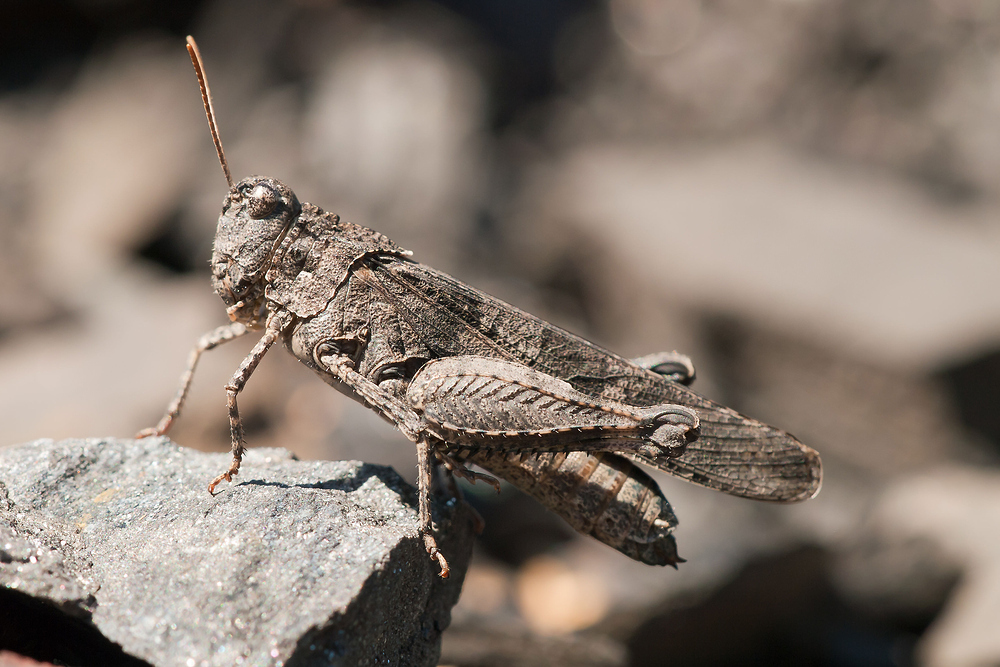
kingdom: Animalia
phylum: Arthropoda
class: Insecta
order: Orthoptera
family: Acrididae
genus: Oedipoda
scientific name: Oedipoda caerulescens
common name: Blue-winged grasshopper
